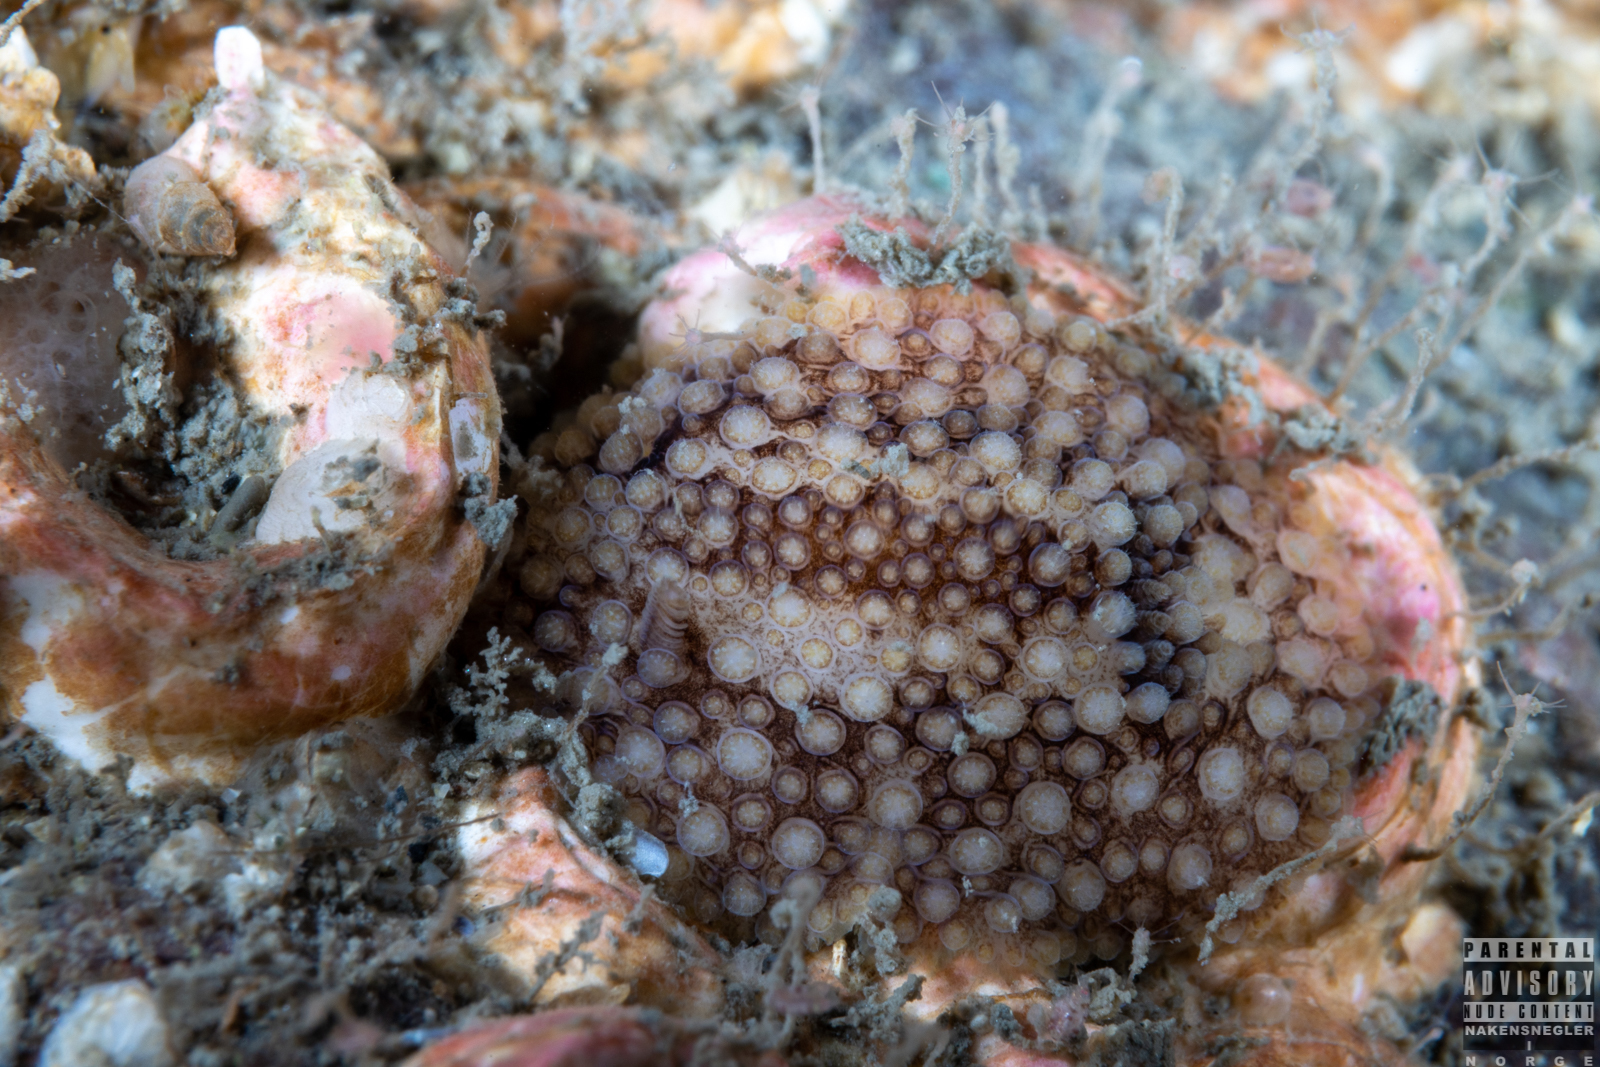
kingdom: Animalia
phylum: Mollusca
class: Gastropoda
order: Nudibranchia
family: Onchidorididae
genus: Onchidoris
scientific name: Onchidoris bilamellata
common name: Barnacle-eating onchidoris
